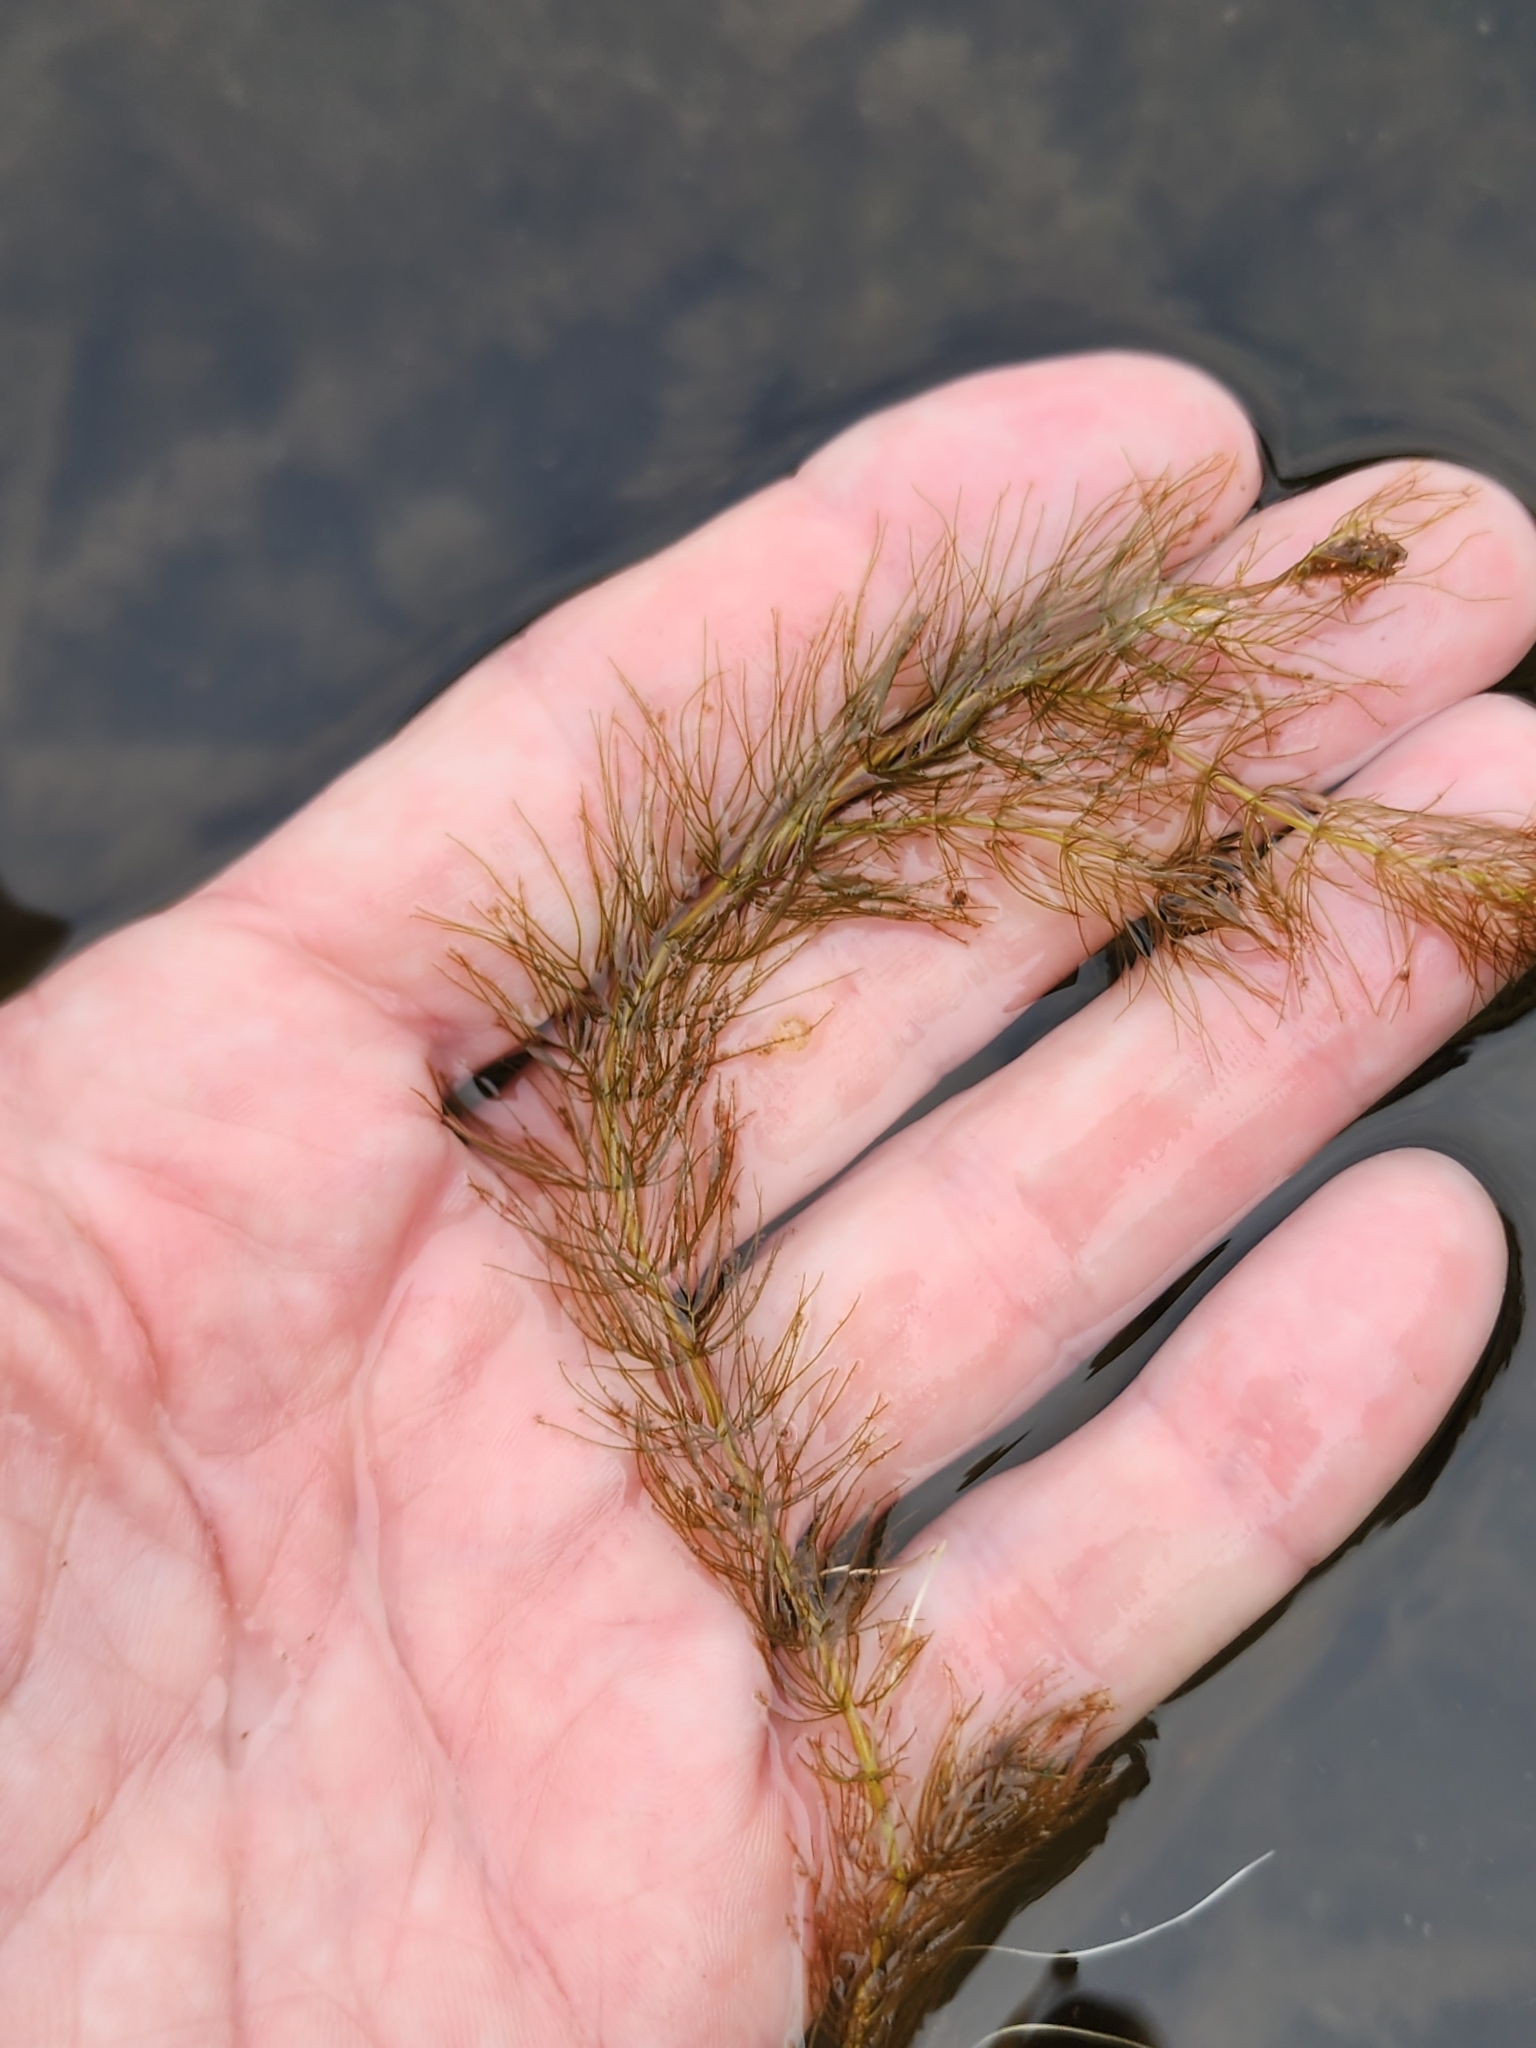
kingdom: Plantae
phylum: Tracheophyta
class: Magnoliopsida
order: Saxifragales
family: Haloragaceae
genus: Myriophyllum
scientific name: Myriophyllum alterniflorum
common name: Alternate water-milfoil
